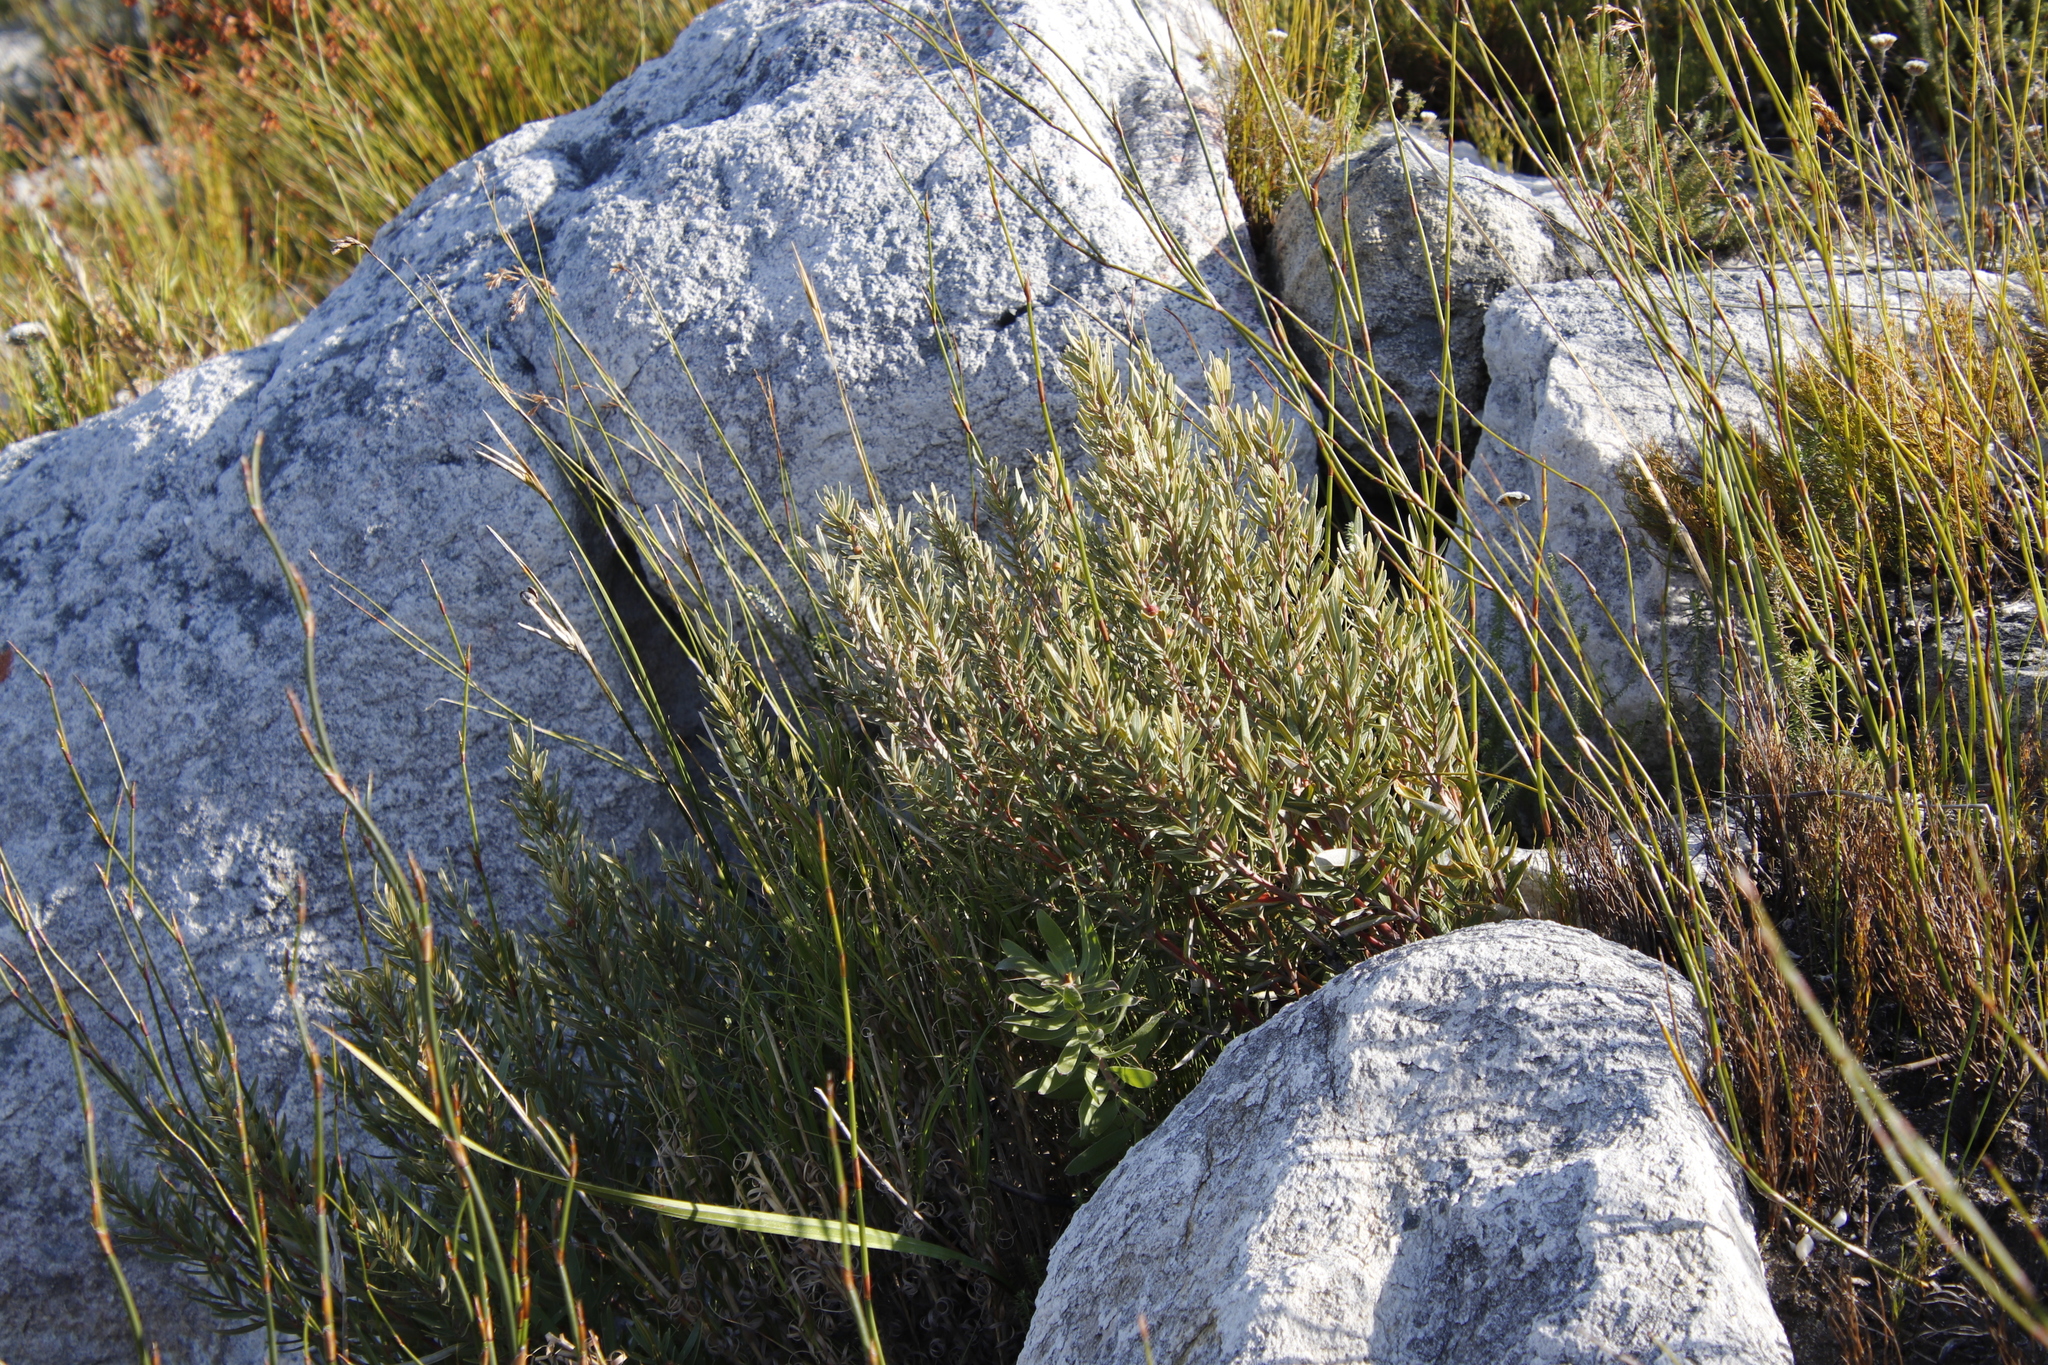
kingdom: Plantae
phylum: Tracheophyta
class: Magnoliopsida
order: Cornales
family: Grubbiaceae
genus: Grubbia
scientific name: Grubbia tomentosa
